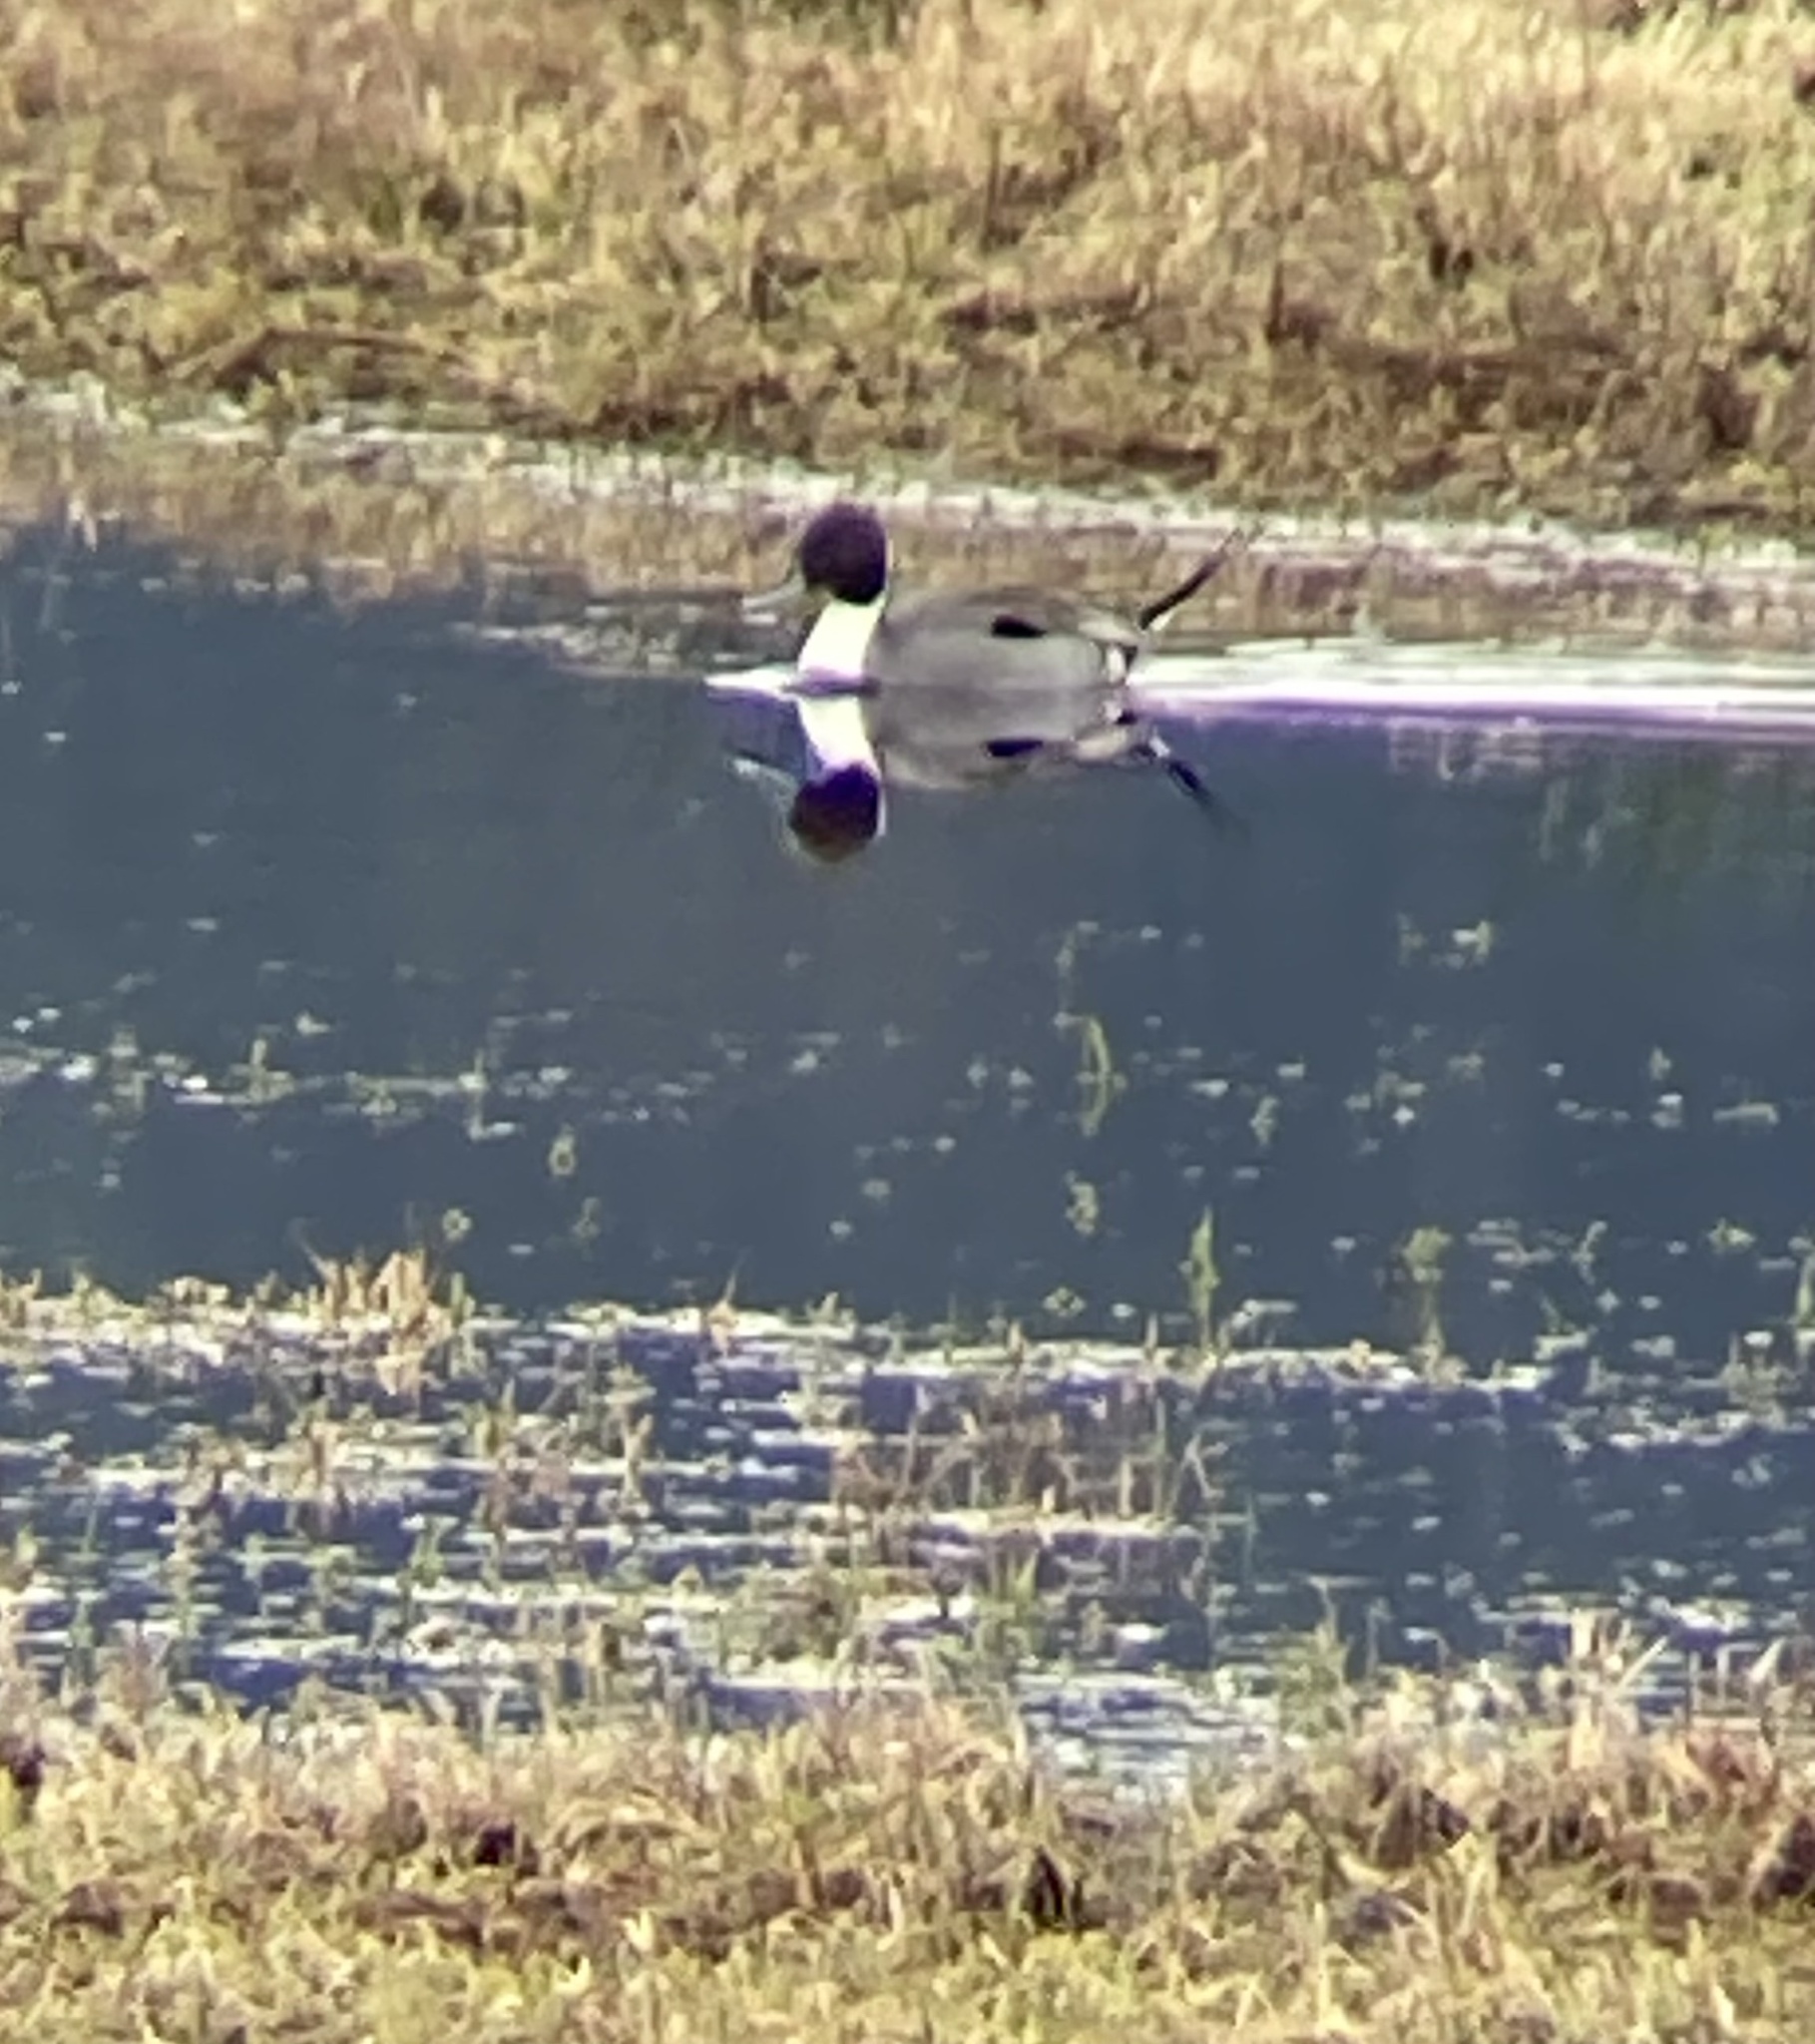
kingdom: Animalia
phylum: Chordata
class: Aves
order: Anseriformes
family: Anatidae
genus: Anas
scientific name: Anas acuta
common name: Northern pintail
